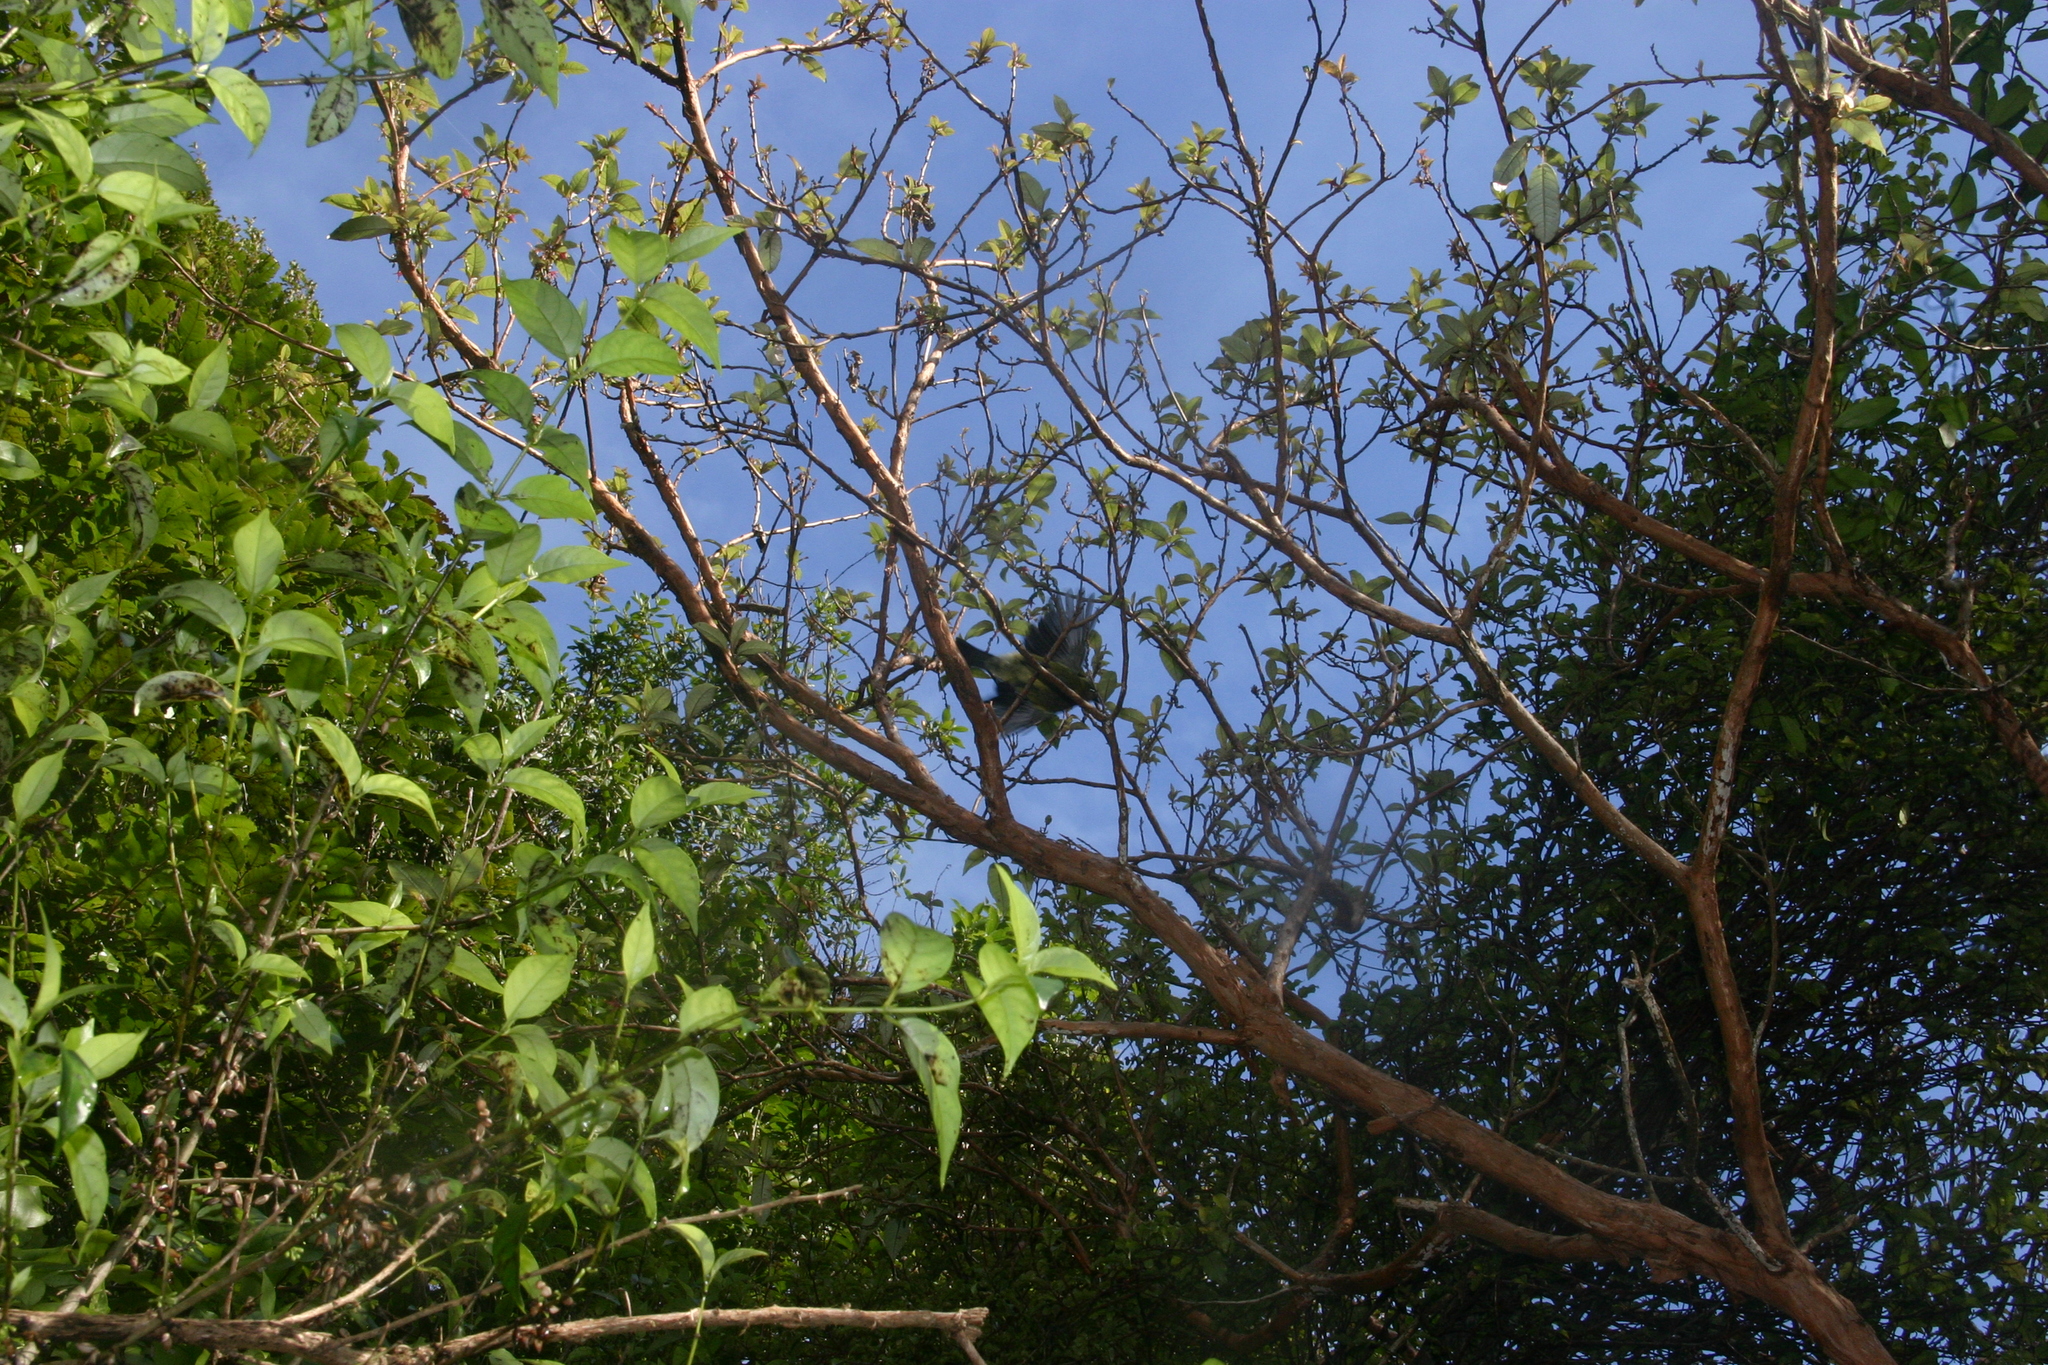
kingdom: Plantae
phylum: Tracheophyta
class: Magnoliopsida
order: Myrtales
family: Onagraceae
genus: Fuchsia
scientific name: Fuchsia excorticata
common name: Tree fuchsia
